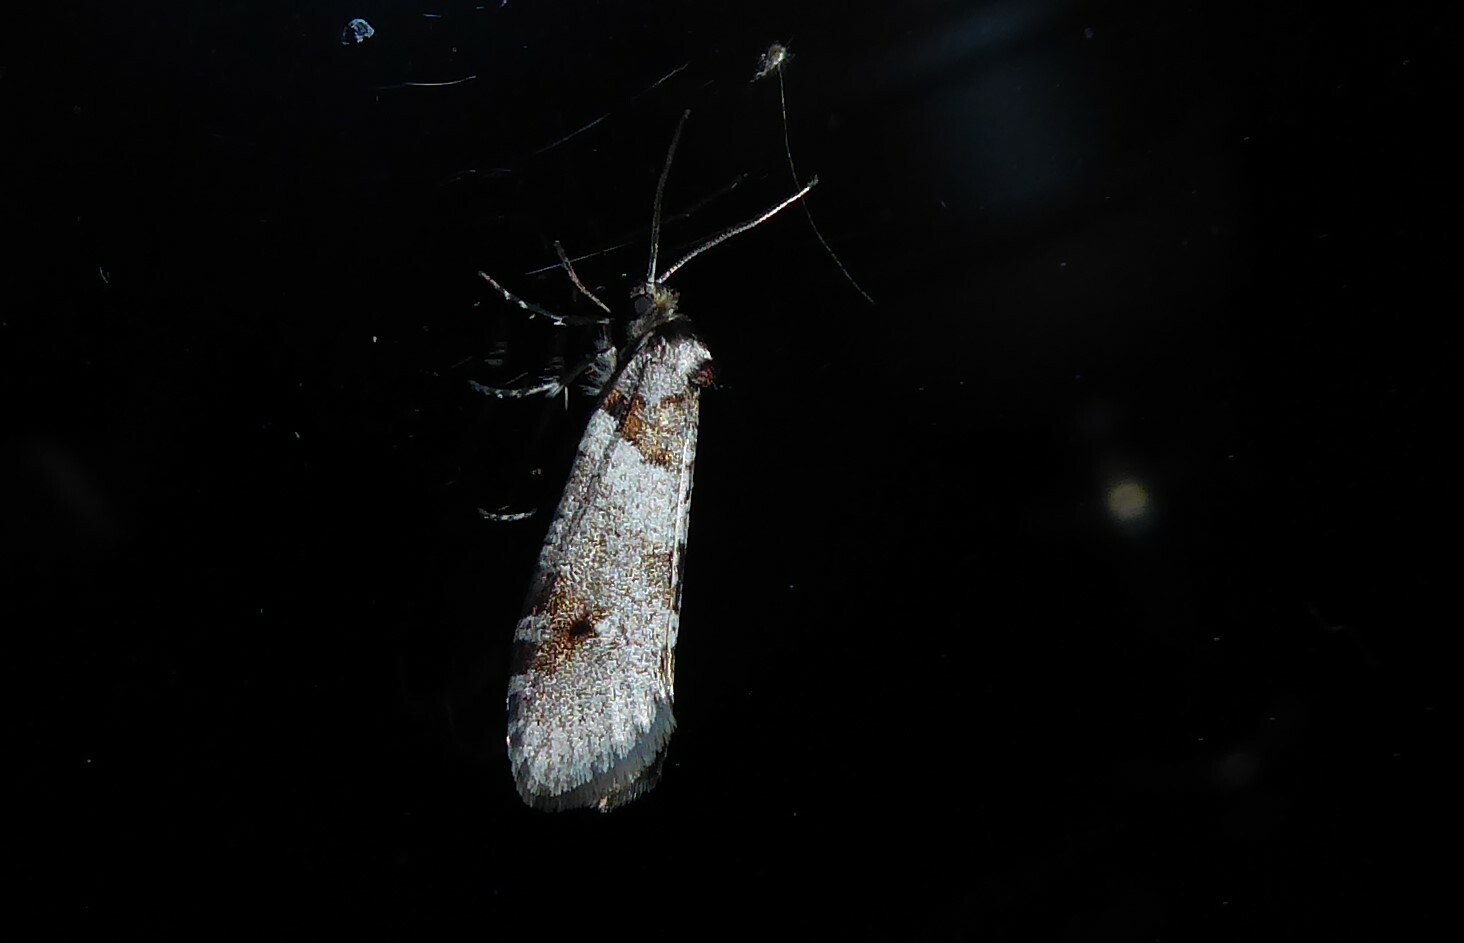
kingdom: Animalia
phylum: Arthropoda
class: Insecta
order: Lepidoptera
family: Psychidae
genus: Lepidoscia
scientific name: Lepidoscia heliochares
